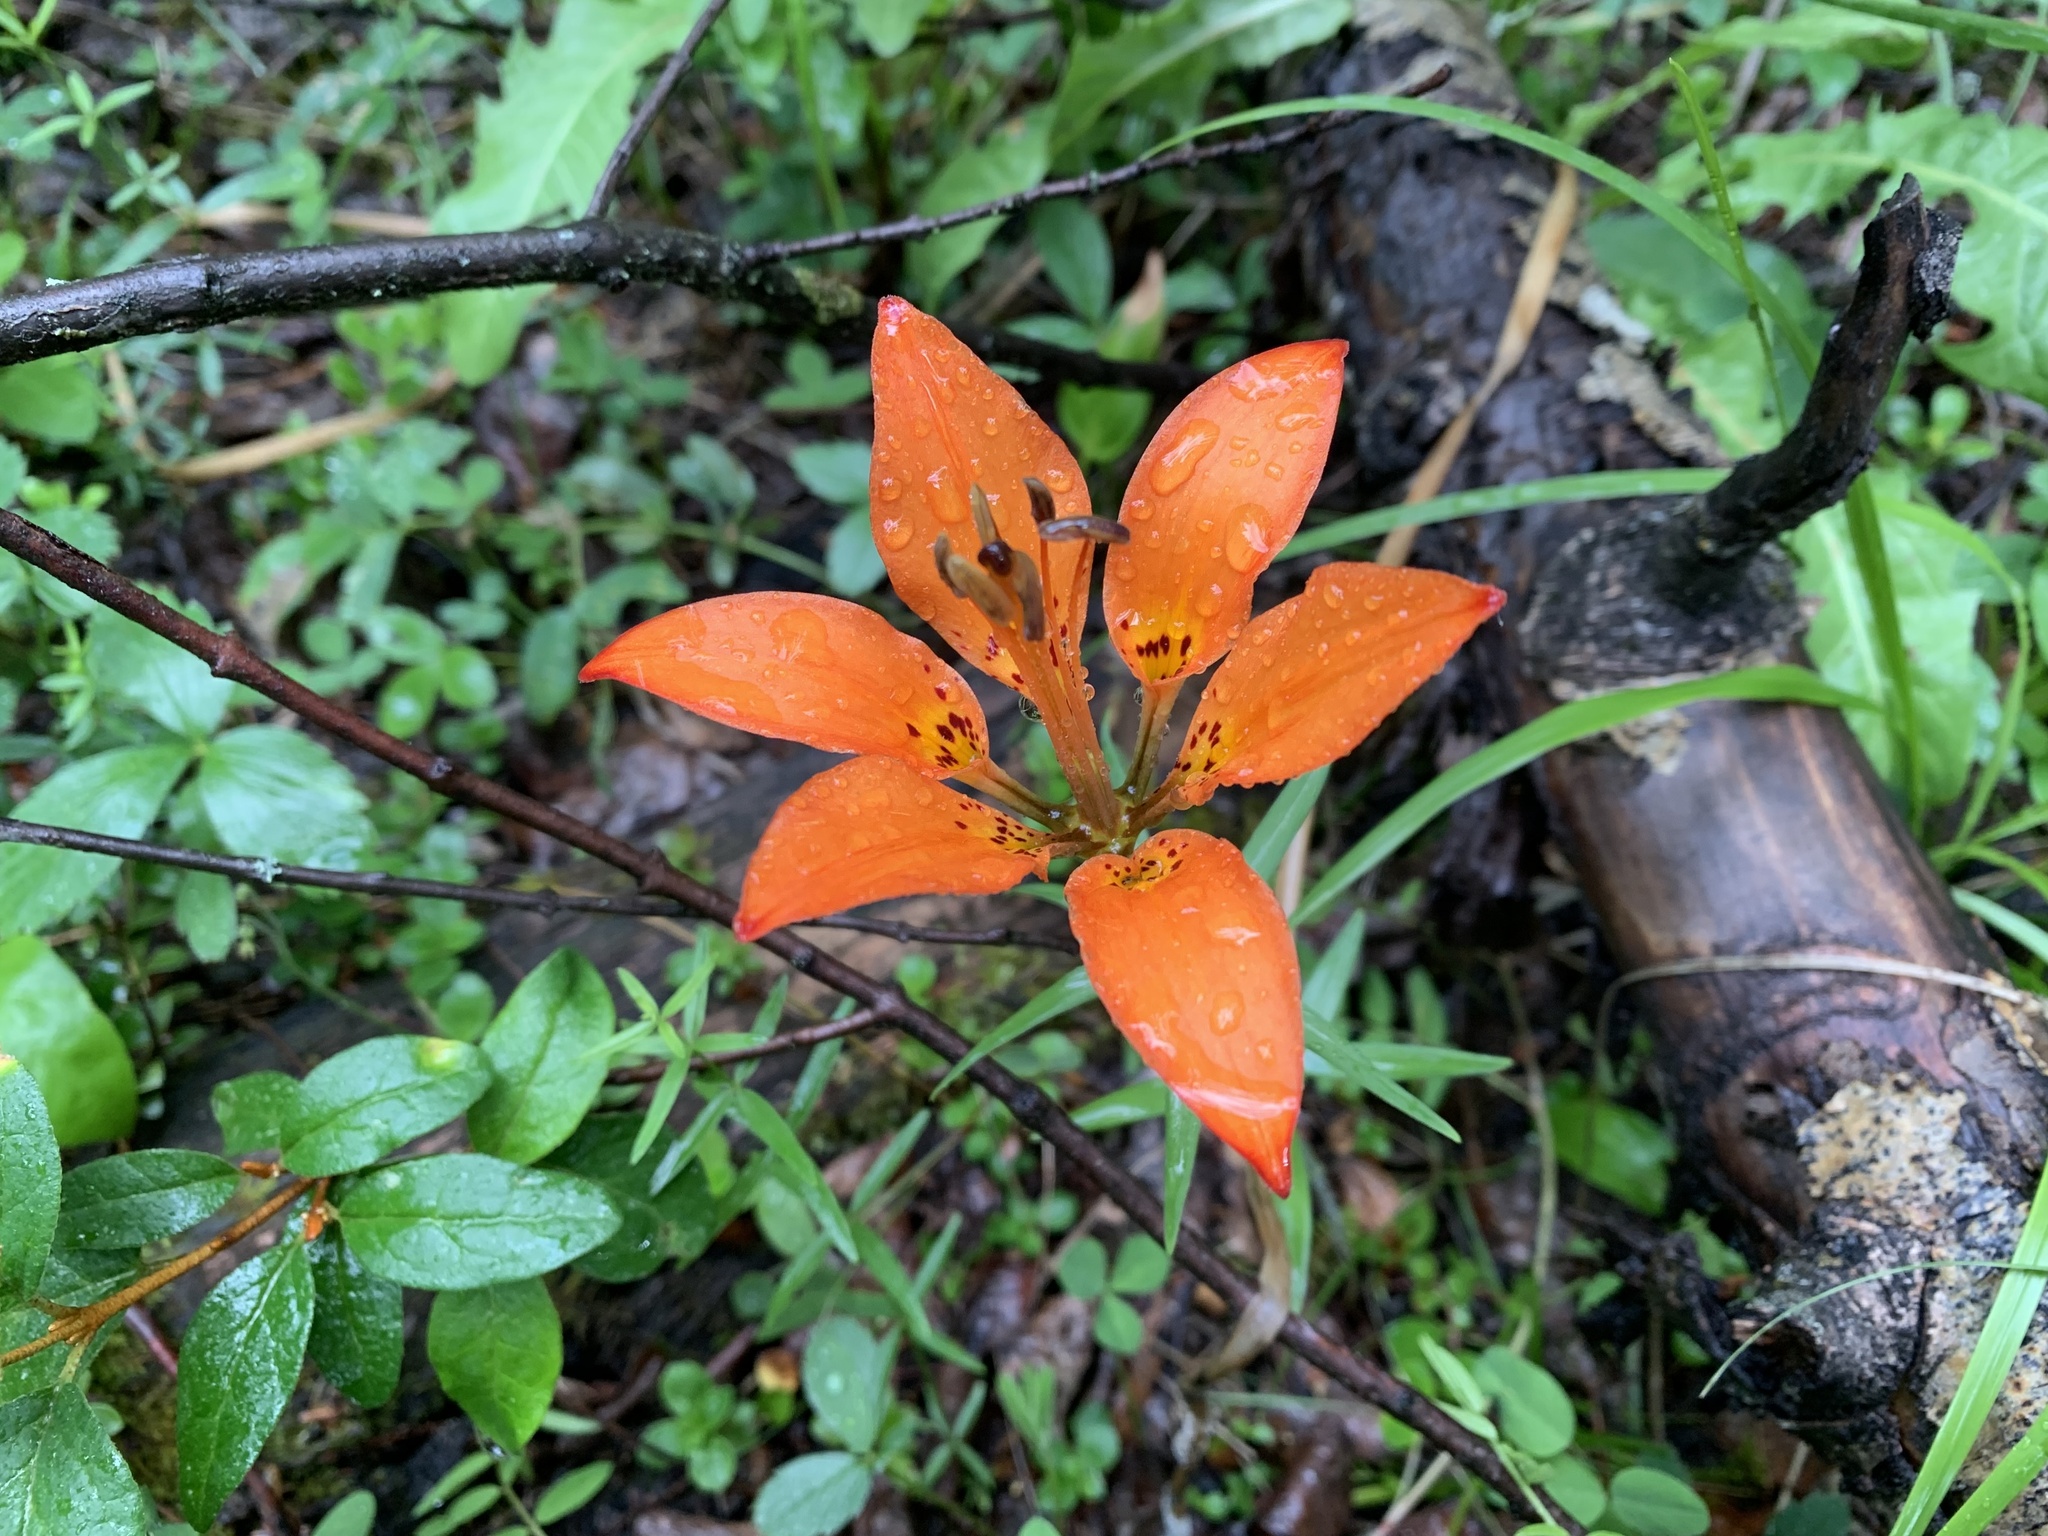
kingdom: Plantae
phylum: Tracheophyta
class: Liliopsida
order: Liliales
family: Liliaceae
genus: Lilium
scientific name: Lilium philadelphicum
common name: Red lily
